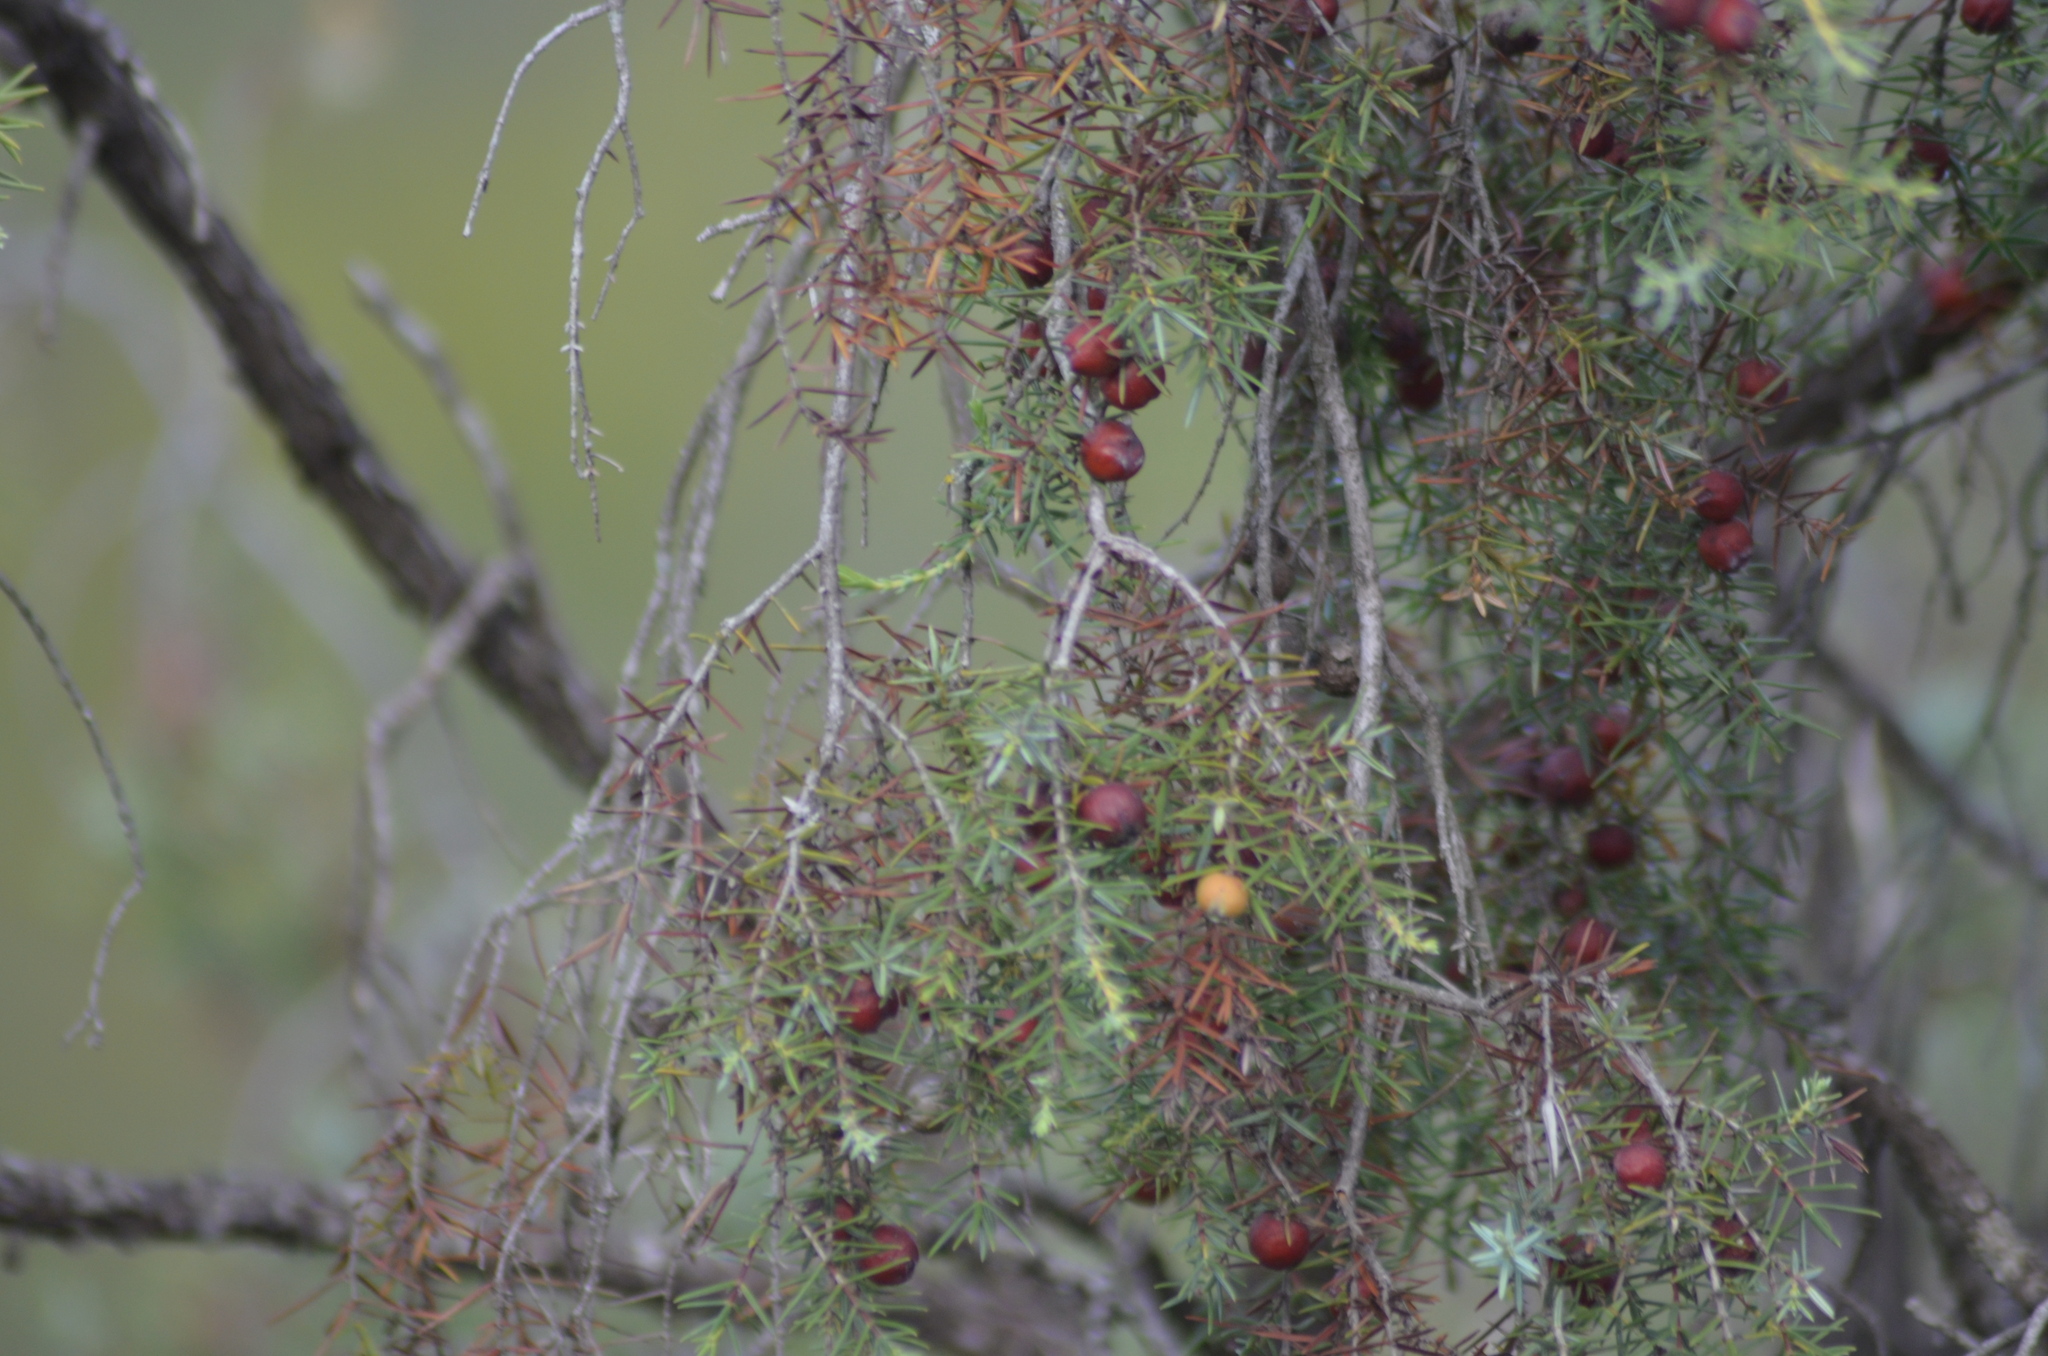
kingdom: Plantae
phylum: Tracheophyta
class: Pinopsida
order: Pinales
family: Cupressaceae
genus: Juniperus
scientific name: Juniperus oxycedrus
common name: Prickly juniper
